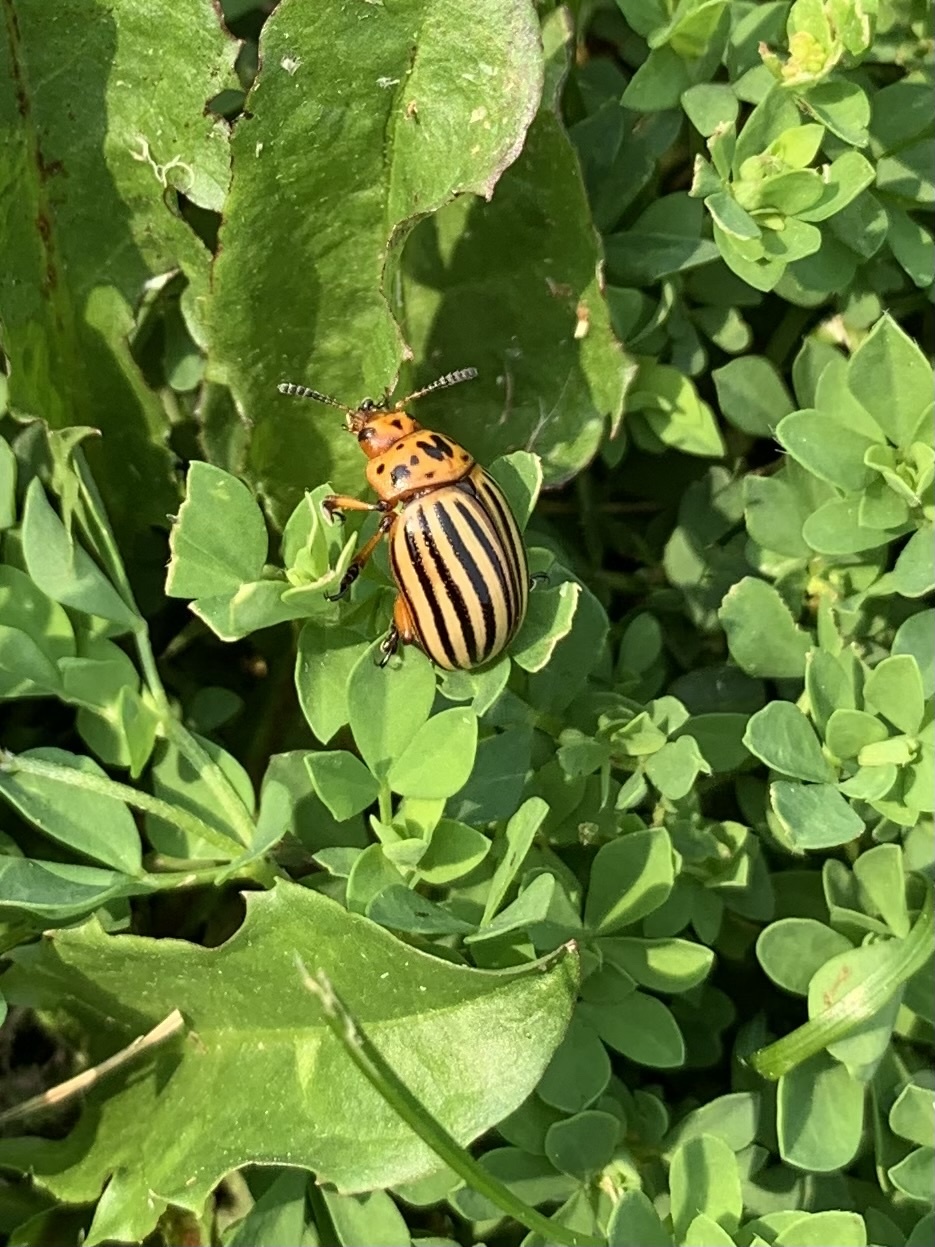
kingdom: Animalia
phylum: Arthropoda
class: Insecta
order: Coleoptera
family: Chrysomelidae
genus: Leptinotarsa
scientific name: Leptinotarsa decemlineata
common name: Colorado potato beetle
